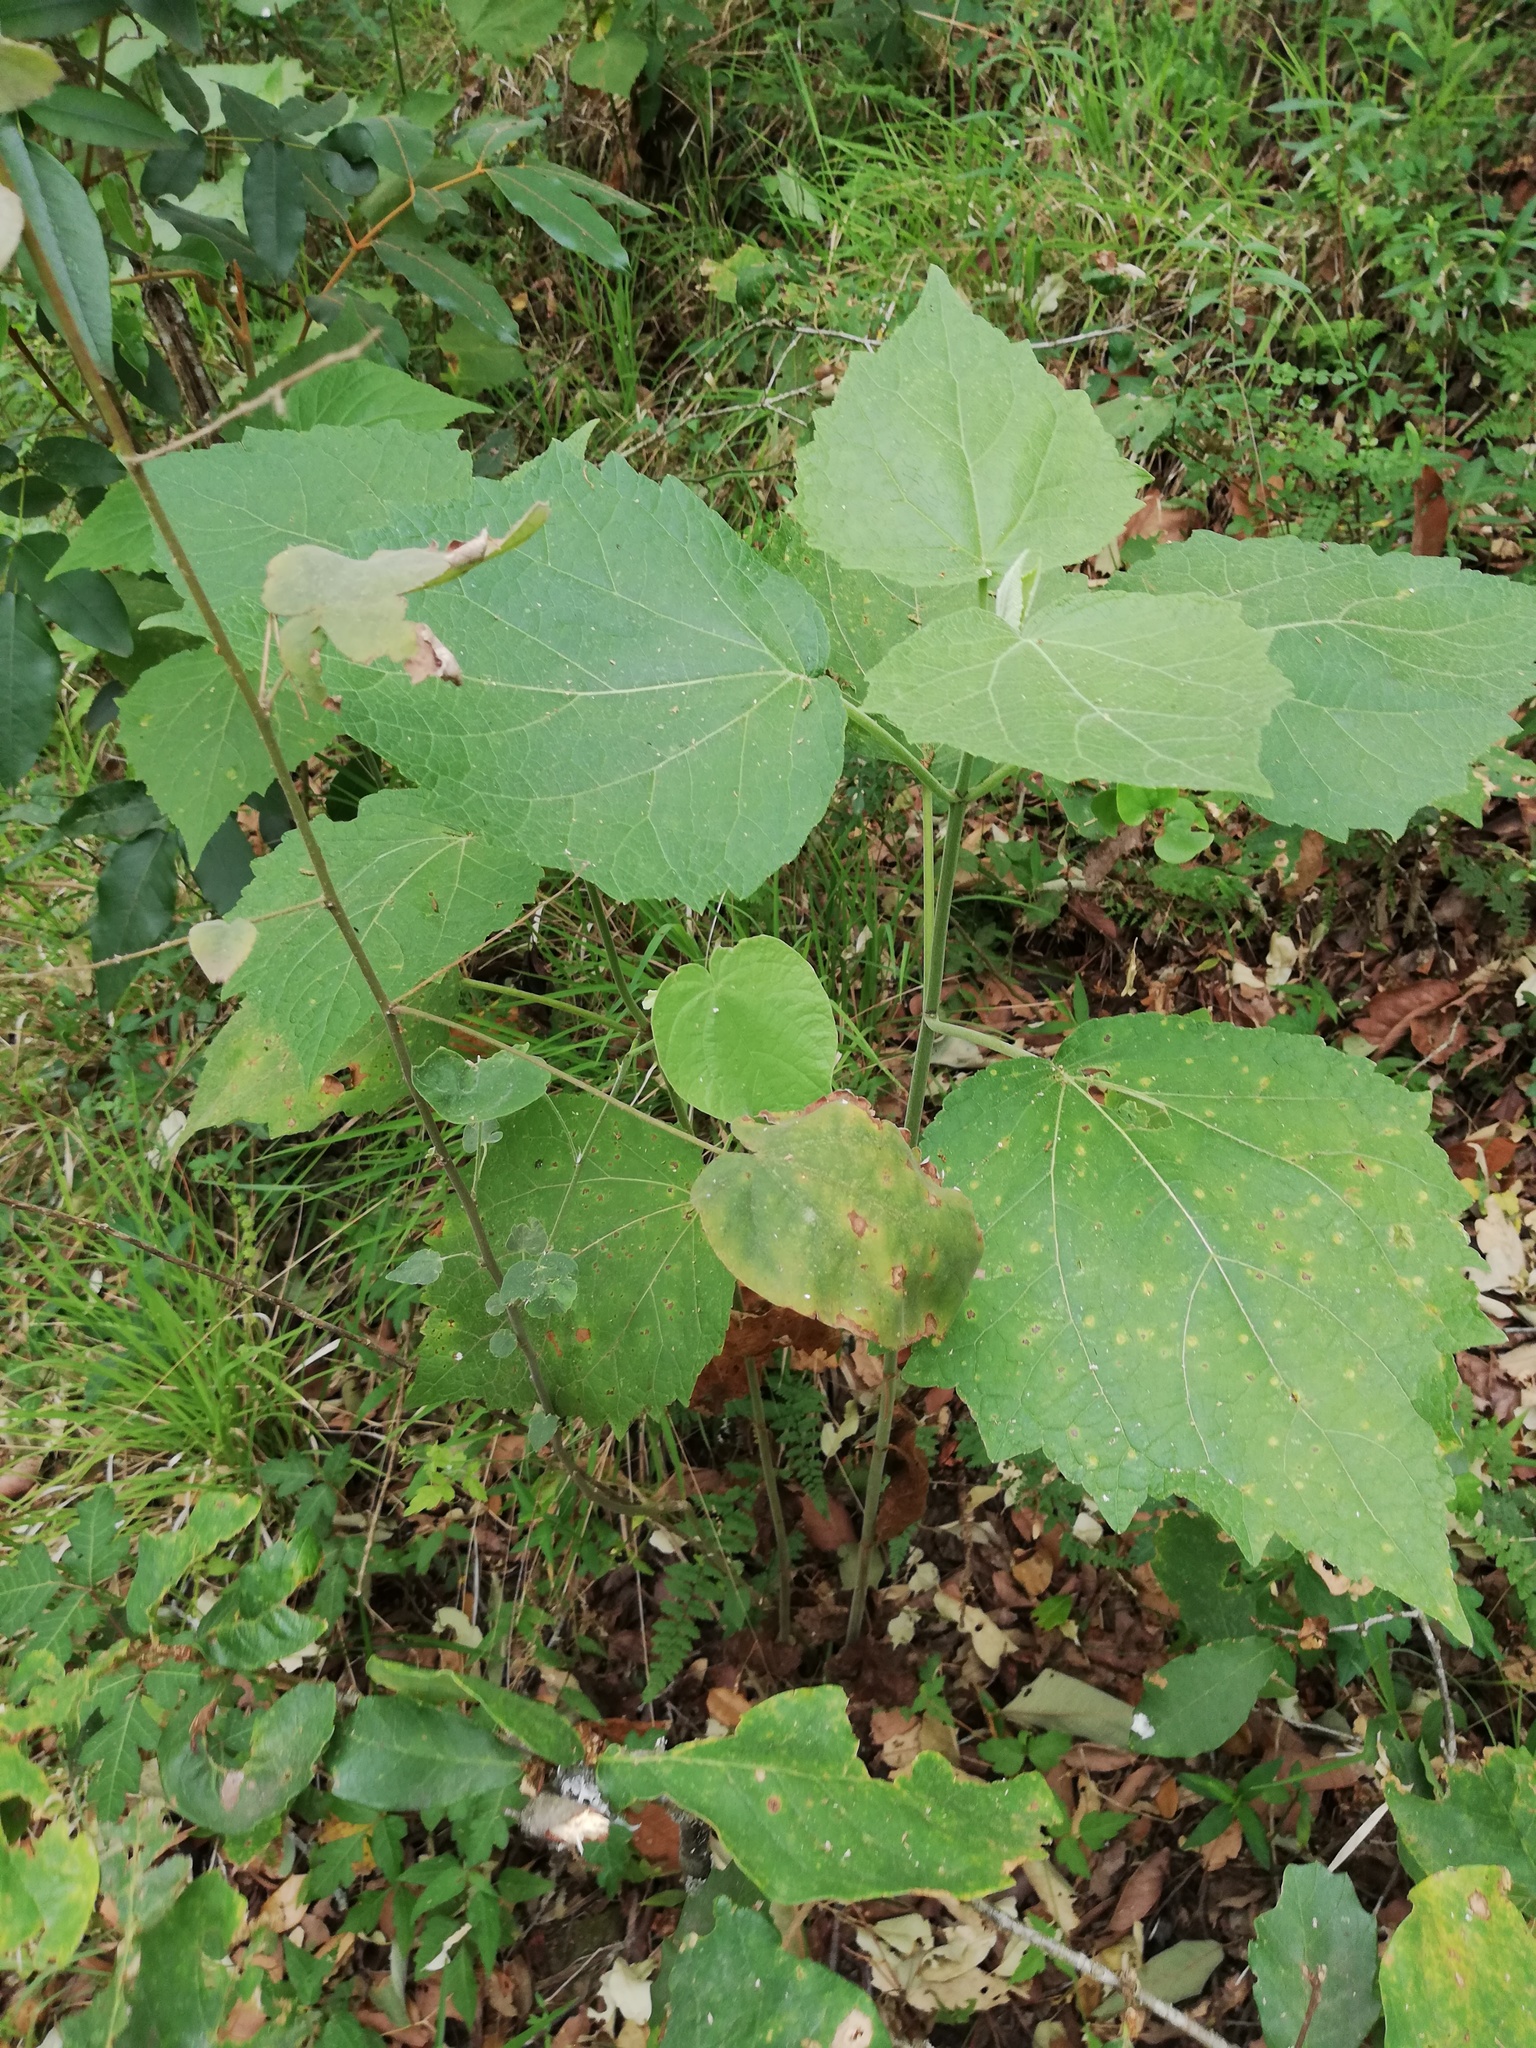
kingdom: Plantae
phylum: Tracheophyta
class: Magnoliopsida
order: Asterales
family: Asteraceae
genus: Peteravenia
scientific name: Peteravenia malvifolia
